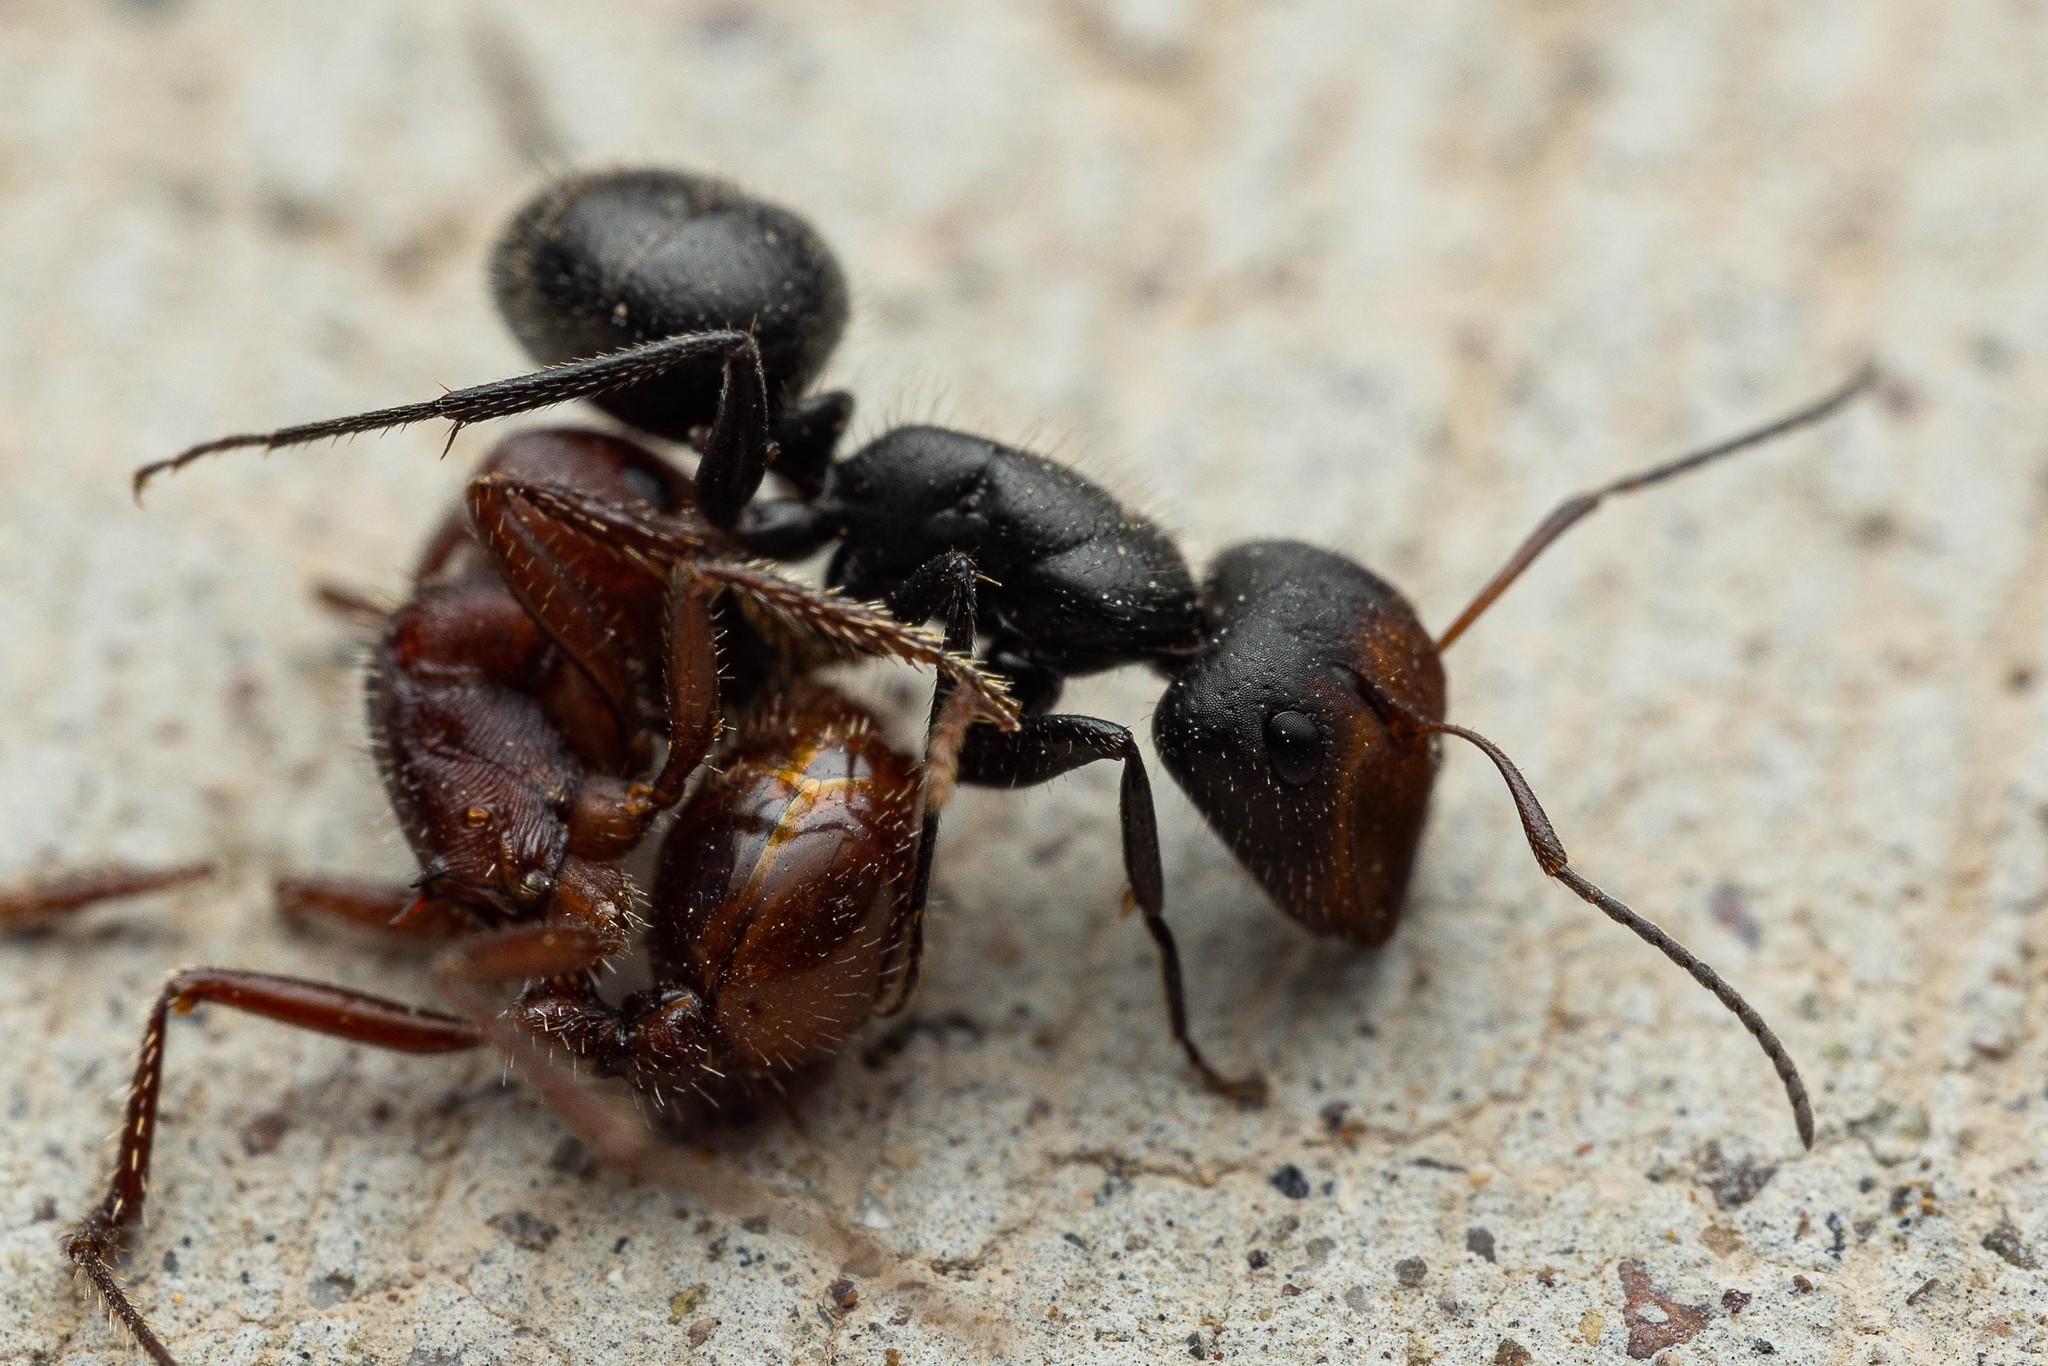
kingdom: Animalia
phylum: Arthropoda
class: Insecta
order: Hymenoptera
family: Formicidae
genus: Camponotus
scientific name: Camponotus ulcerosus
